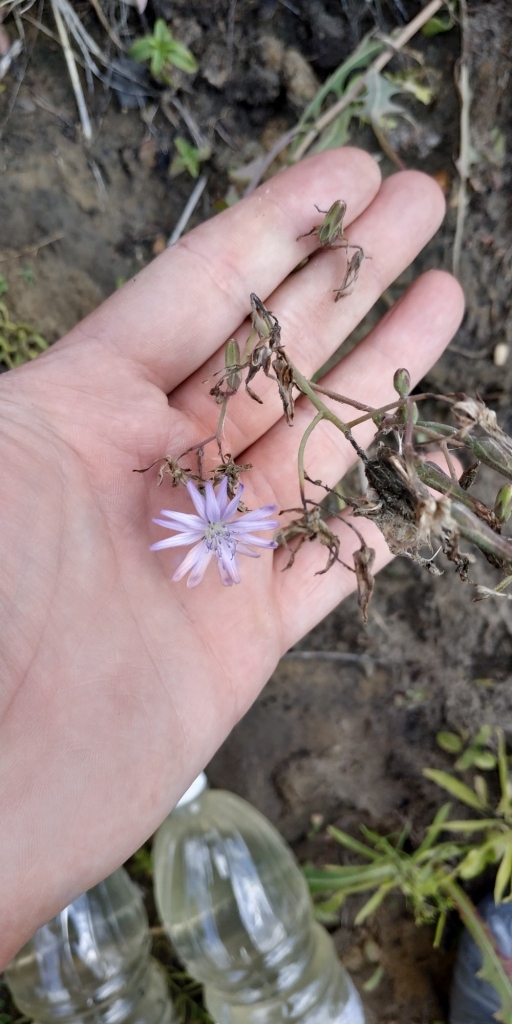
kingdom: Plantae
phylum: Tracheophyta
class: Magnoliopsida
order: Asterales
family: Asteraceae
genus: Lactuca
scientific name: Lactuca tatarica
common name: Blue lettuce
